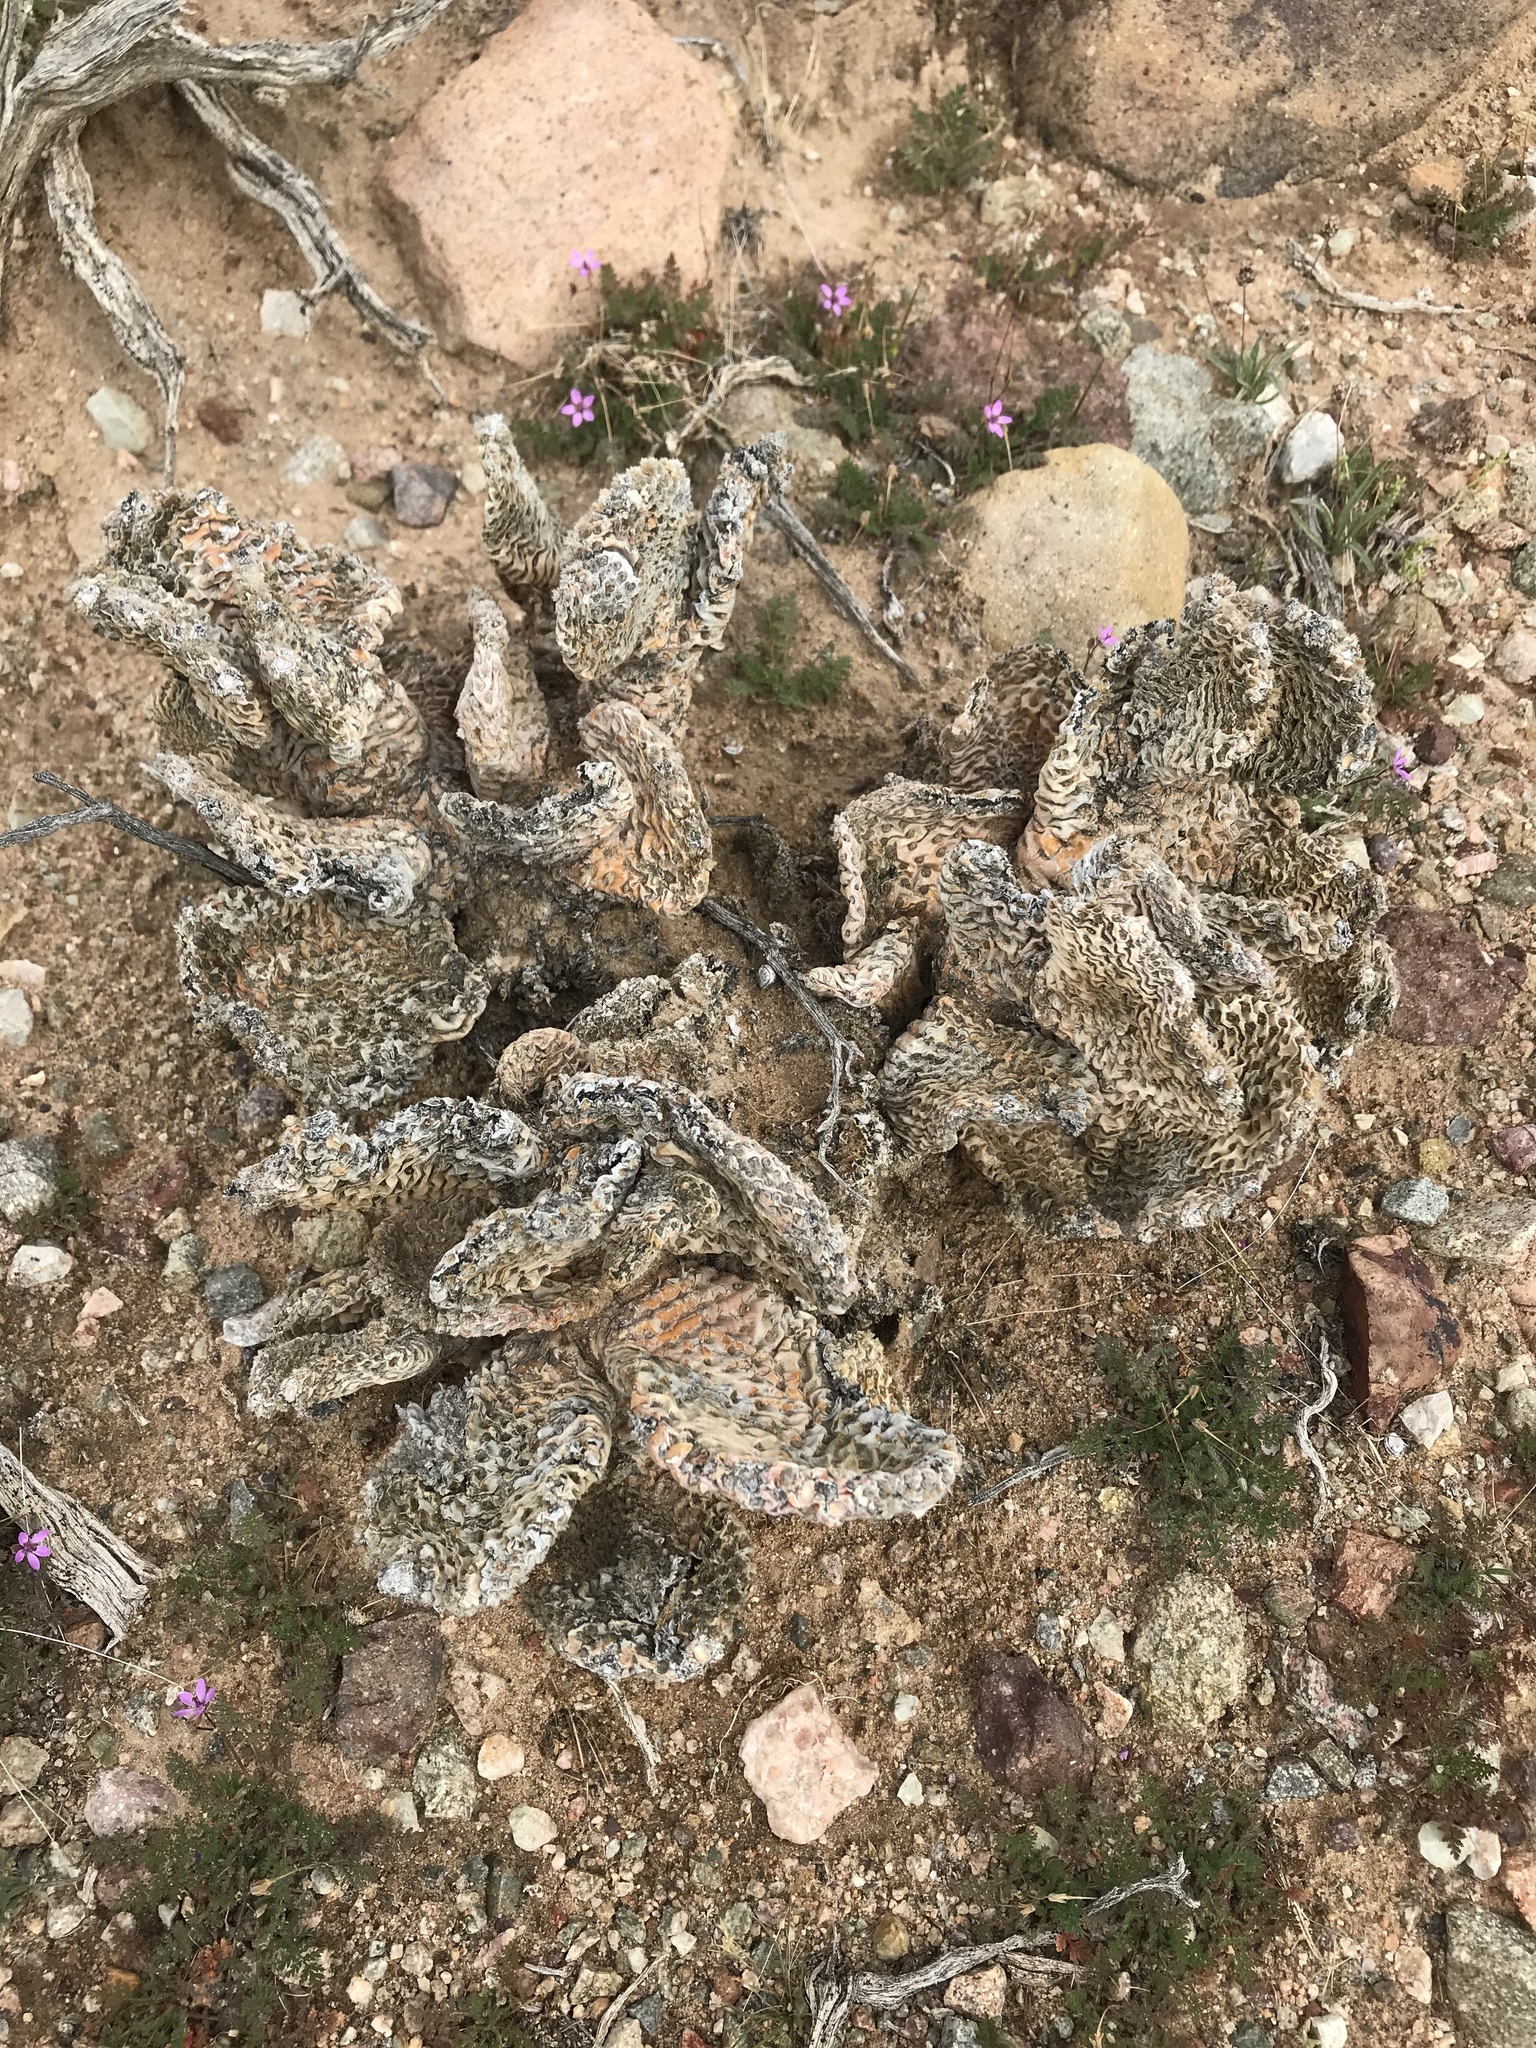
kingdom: Plantae
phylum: Tracheophyta
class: Magnoliopsida
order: Caryophyllales
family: Cactaceae
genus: Opuntia
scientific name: Opuntia basilaris
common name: Beavertail prickly-pear
